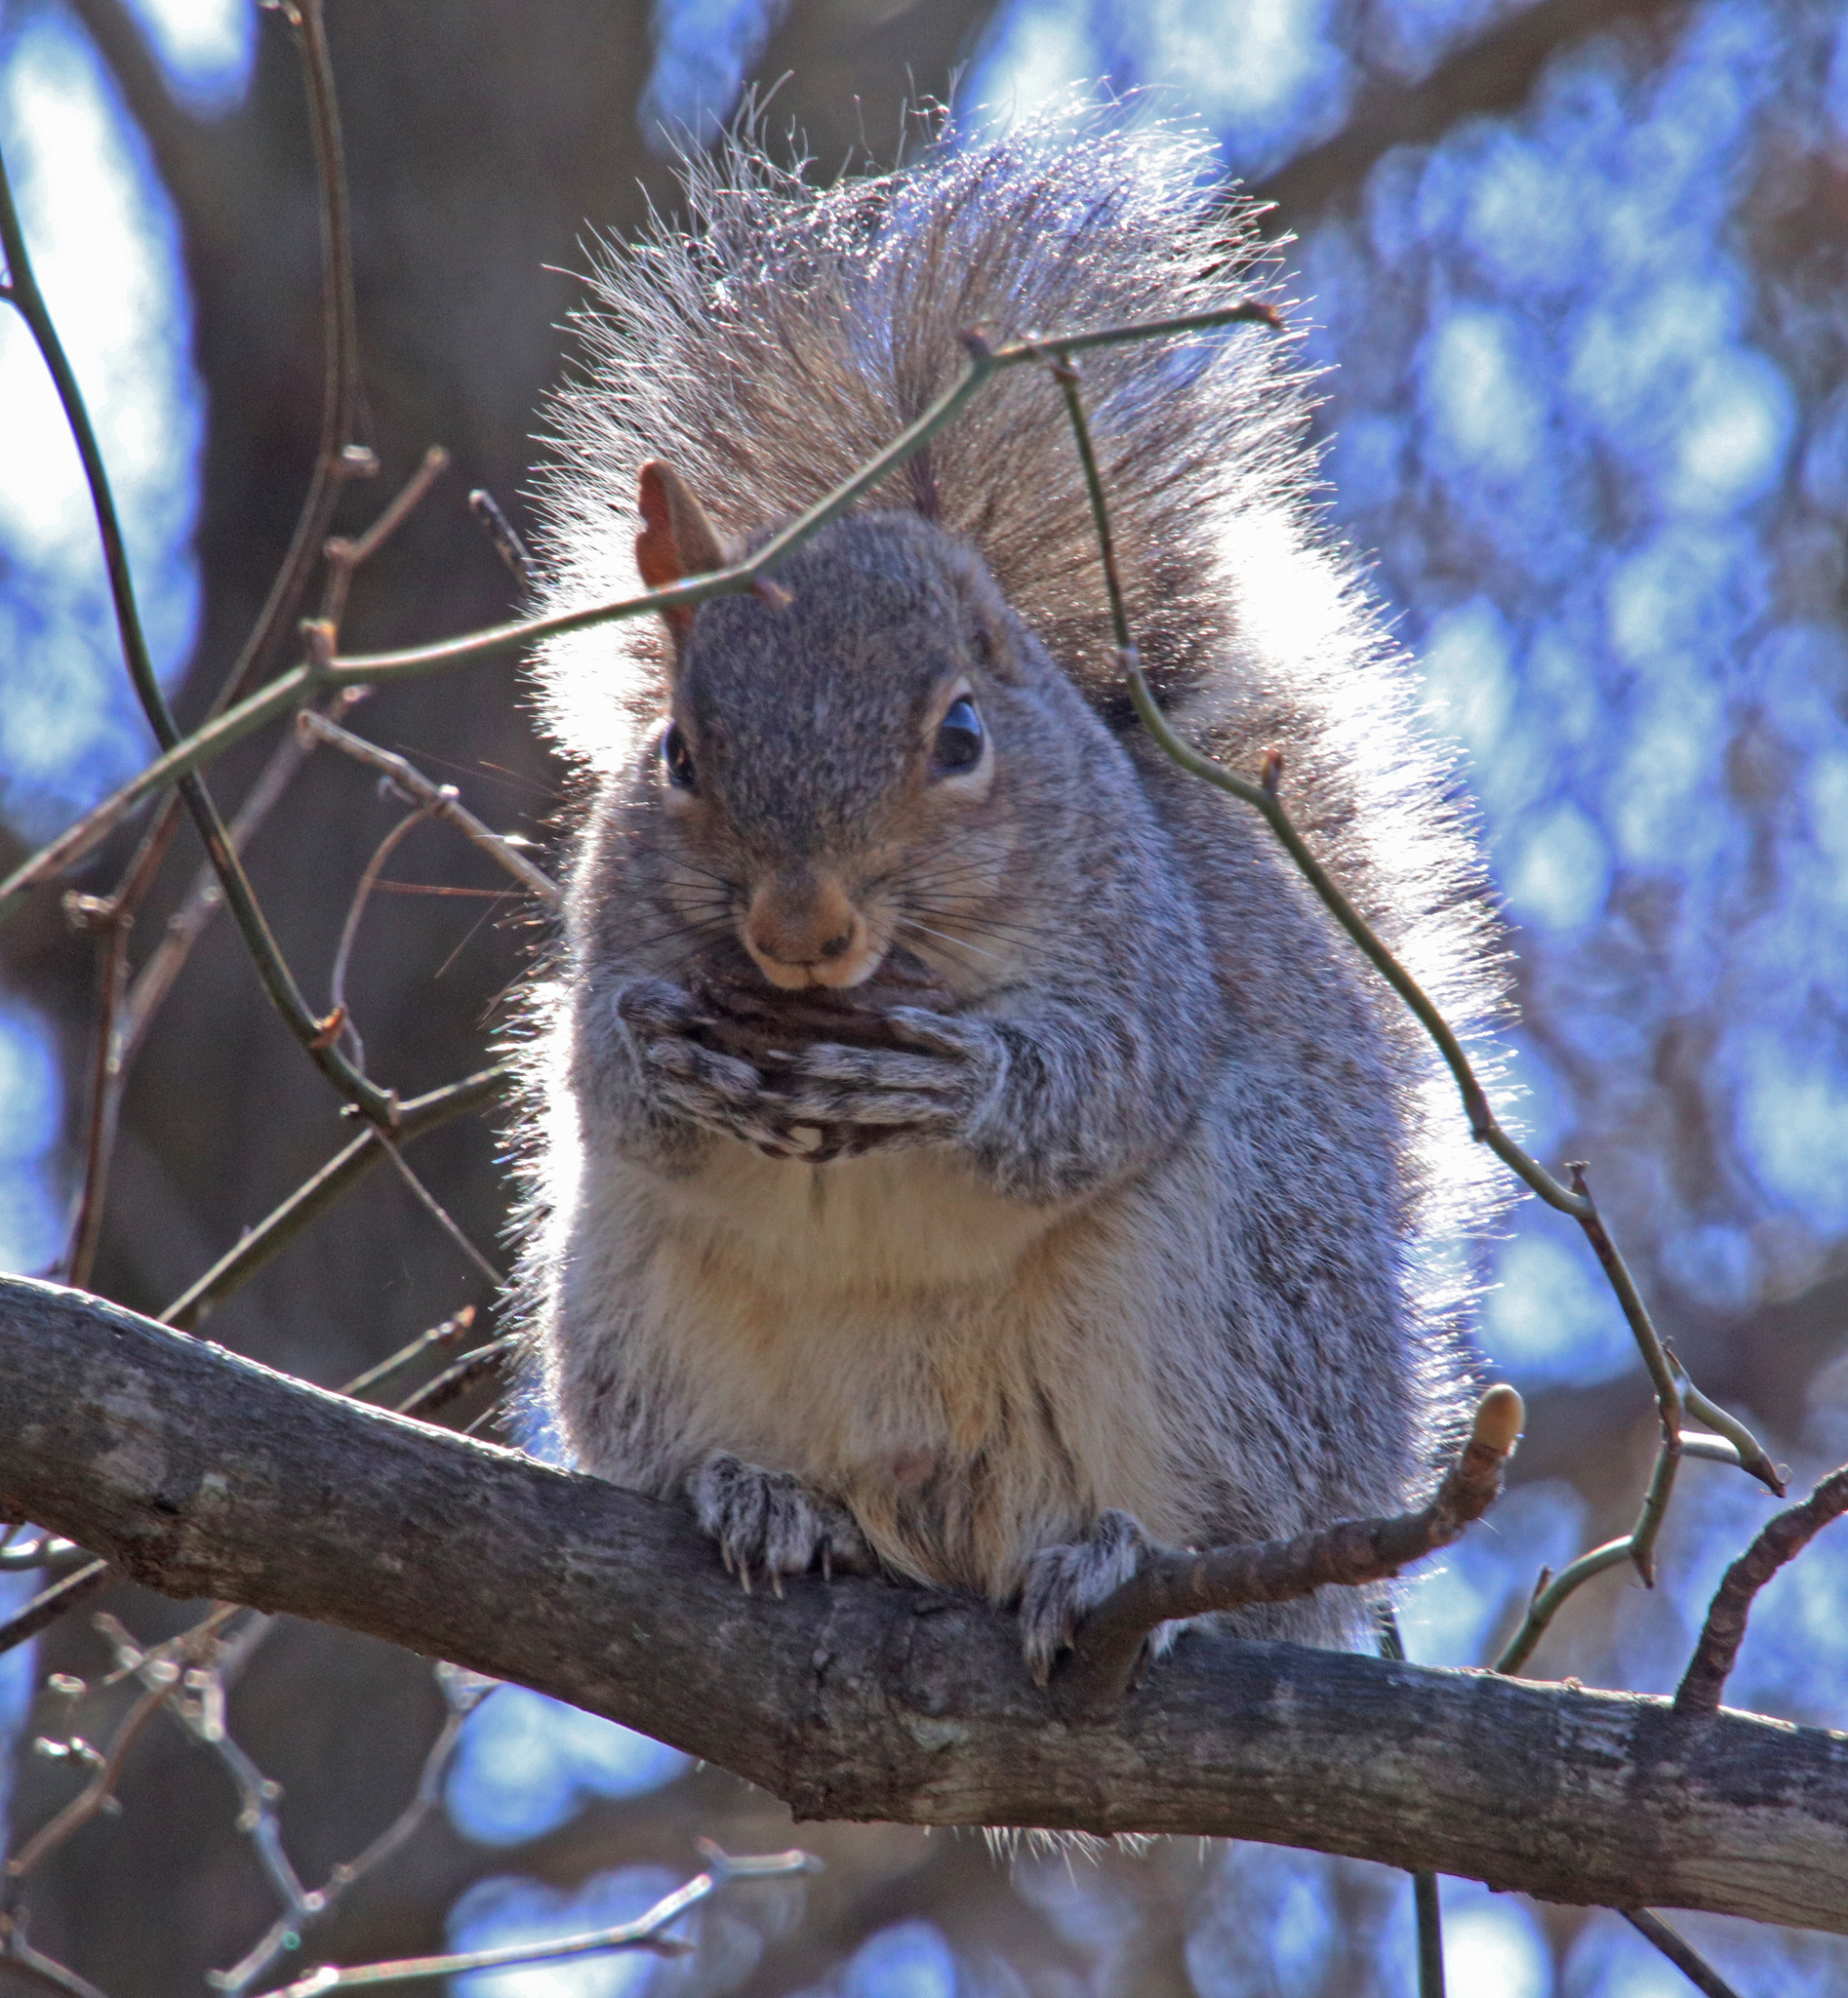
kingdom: Animalia
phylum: Chordata
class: Mammalia
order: Rodentia
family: Sciuridae
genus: Sciurus
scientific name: Sciurus carolinensis
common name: Eastern gray squirrel
